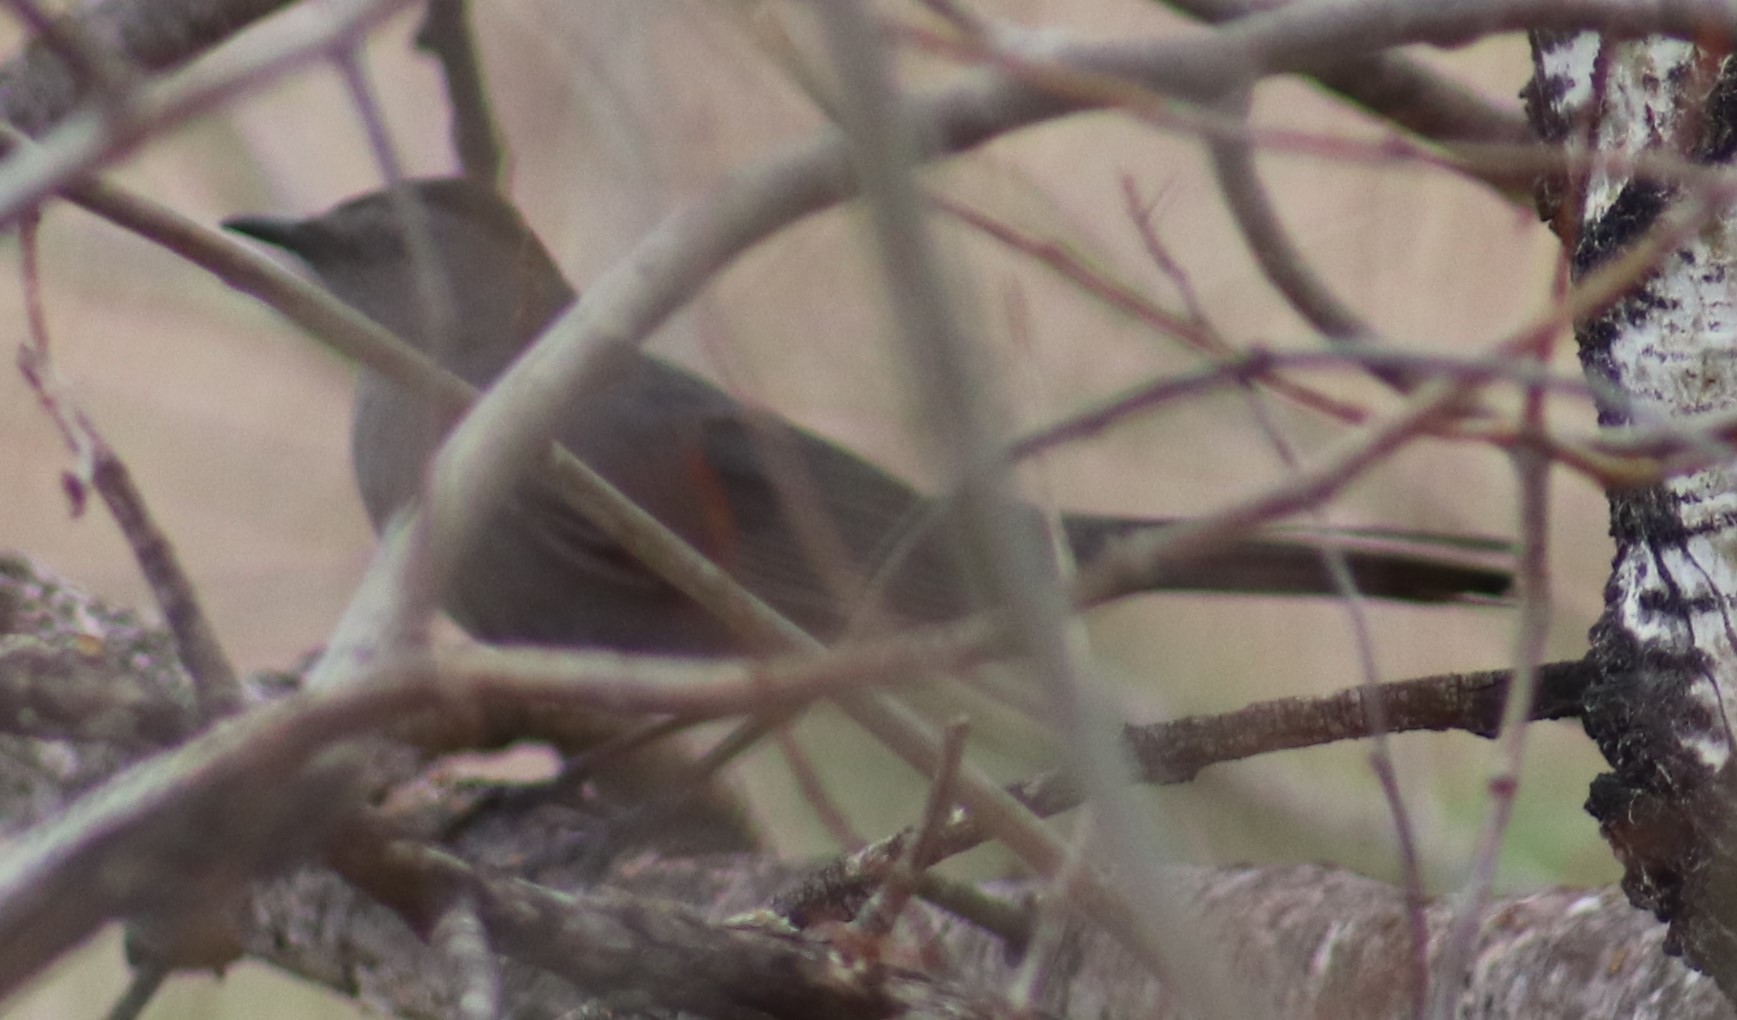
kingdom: Animalia
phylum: Chordata
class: Aves
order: Passeriformes
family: Mimidae
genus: Dumetella
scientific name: Dumetella carolinensis
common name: Gray catbird
